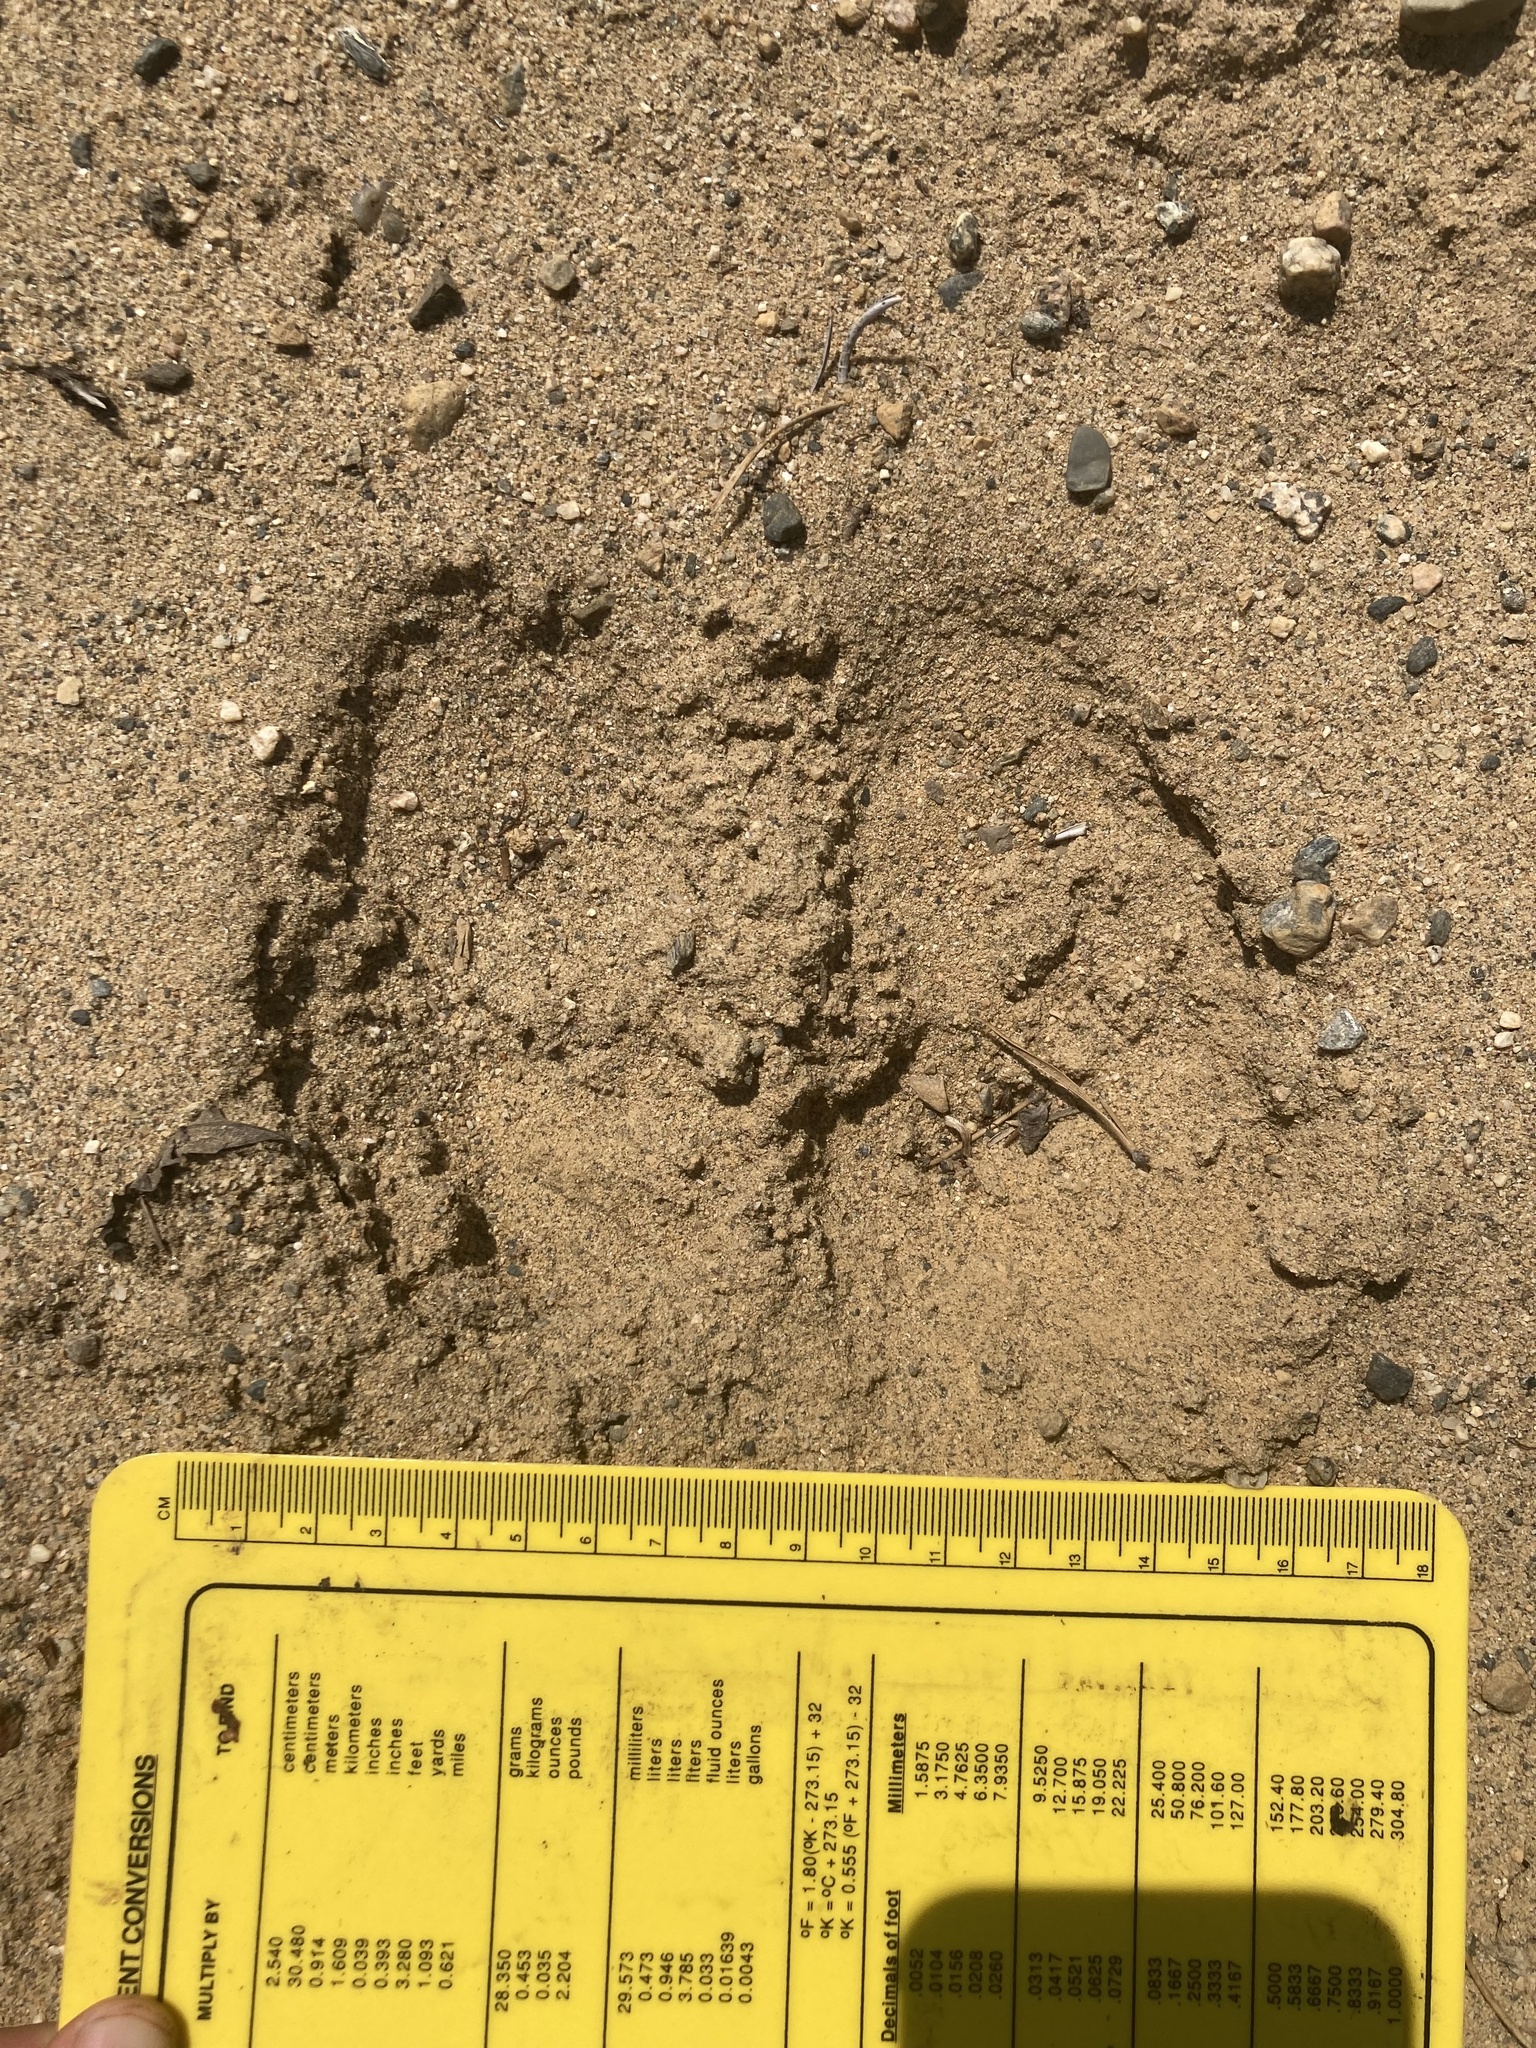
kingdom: Animalia
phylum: Chordata
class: Mammalia
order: Artiodactyla
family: Cervidae
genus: Alces
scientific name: Alces alces
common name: Moose
